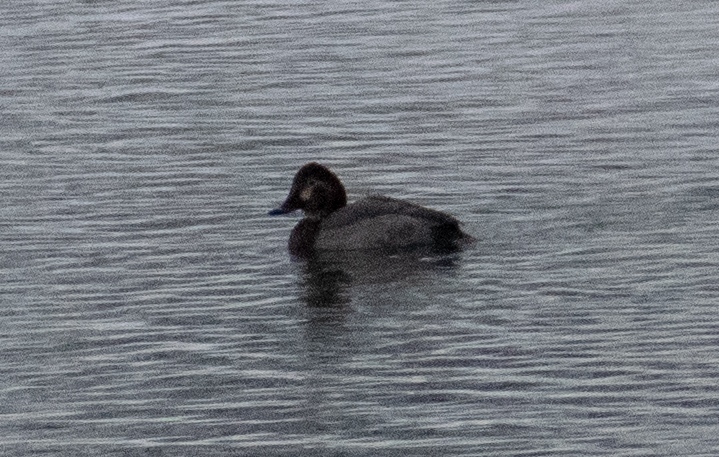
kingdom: Animalia
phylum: Chordata
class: Aves
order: Anseriformes
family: Anatidae
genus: Aythya
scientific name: Aythya ferina
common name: Common pochard
